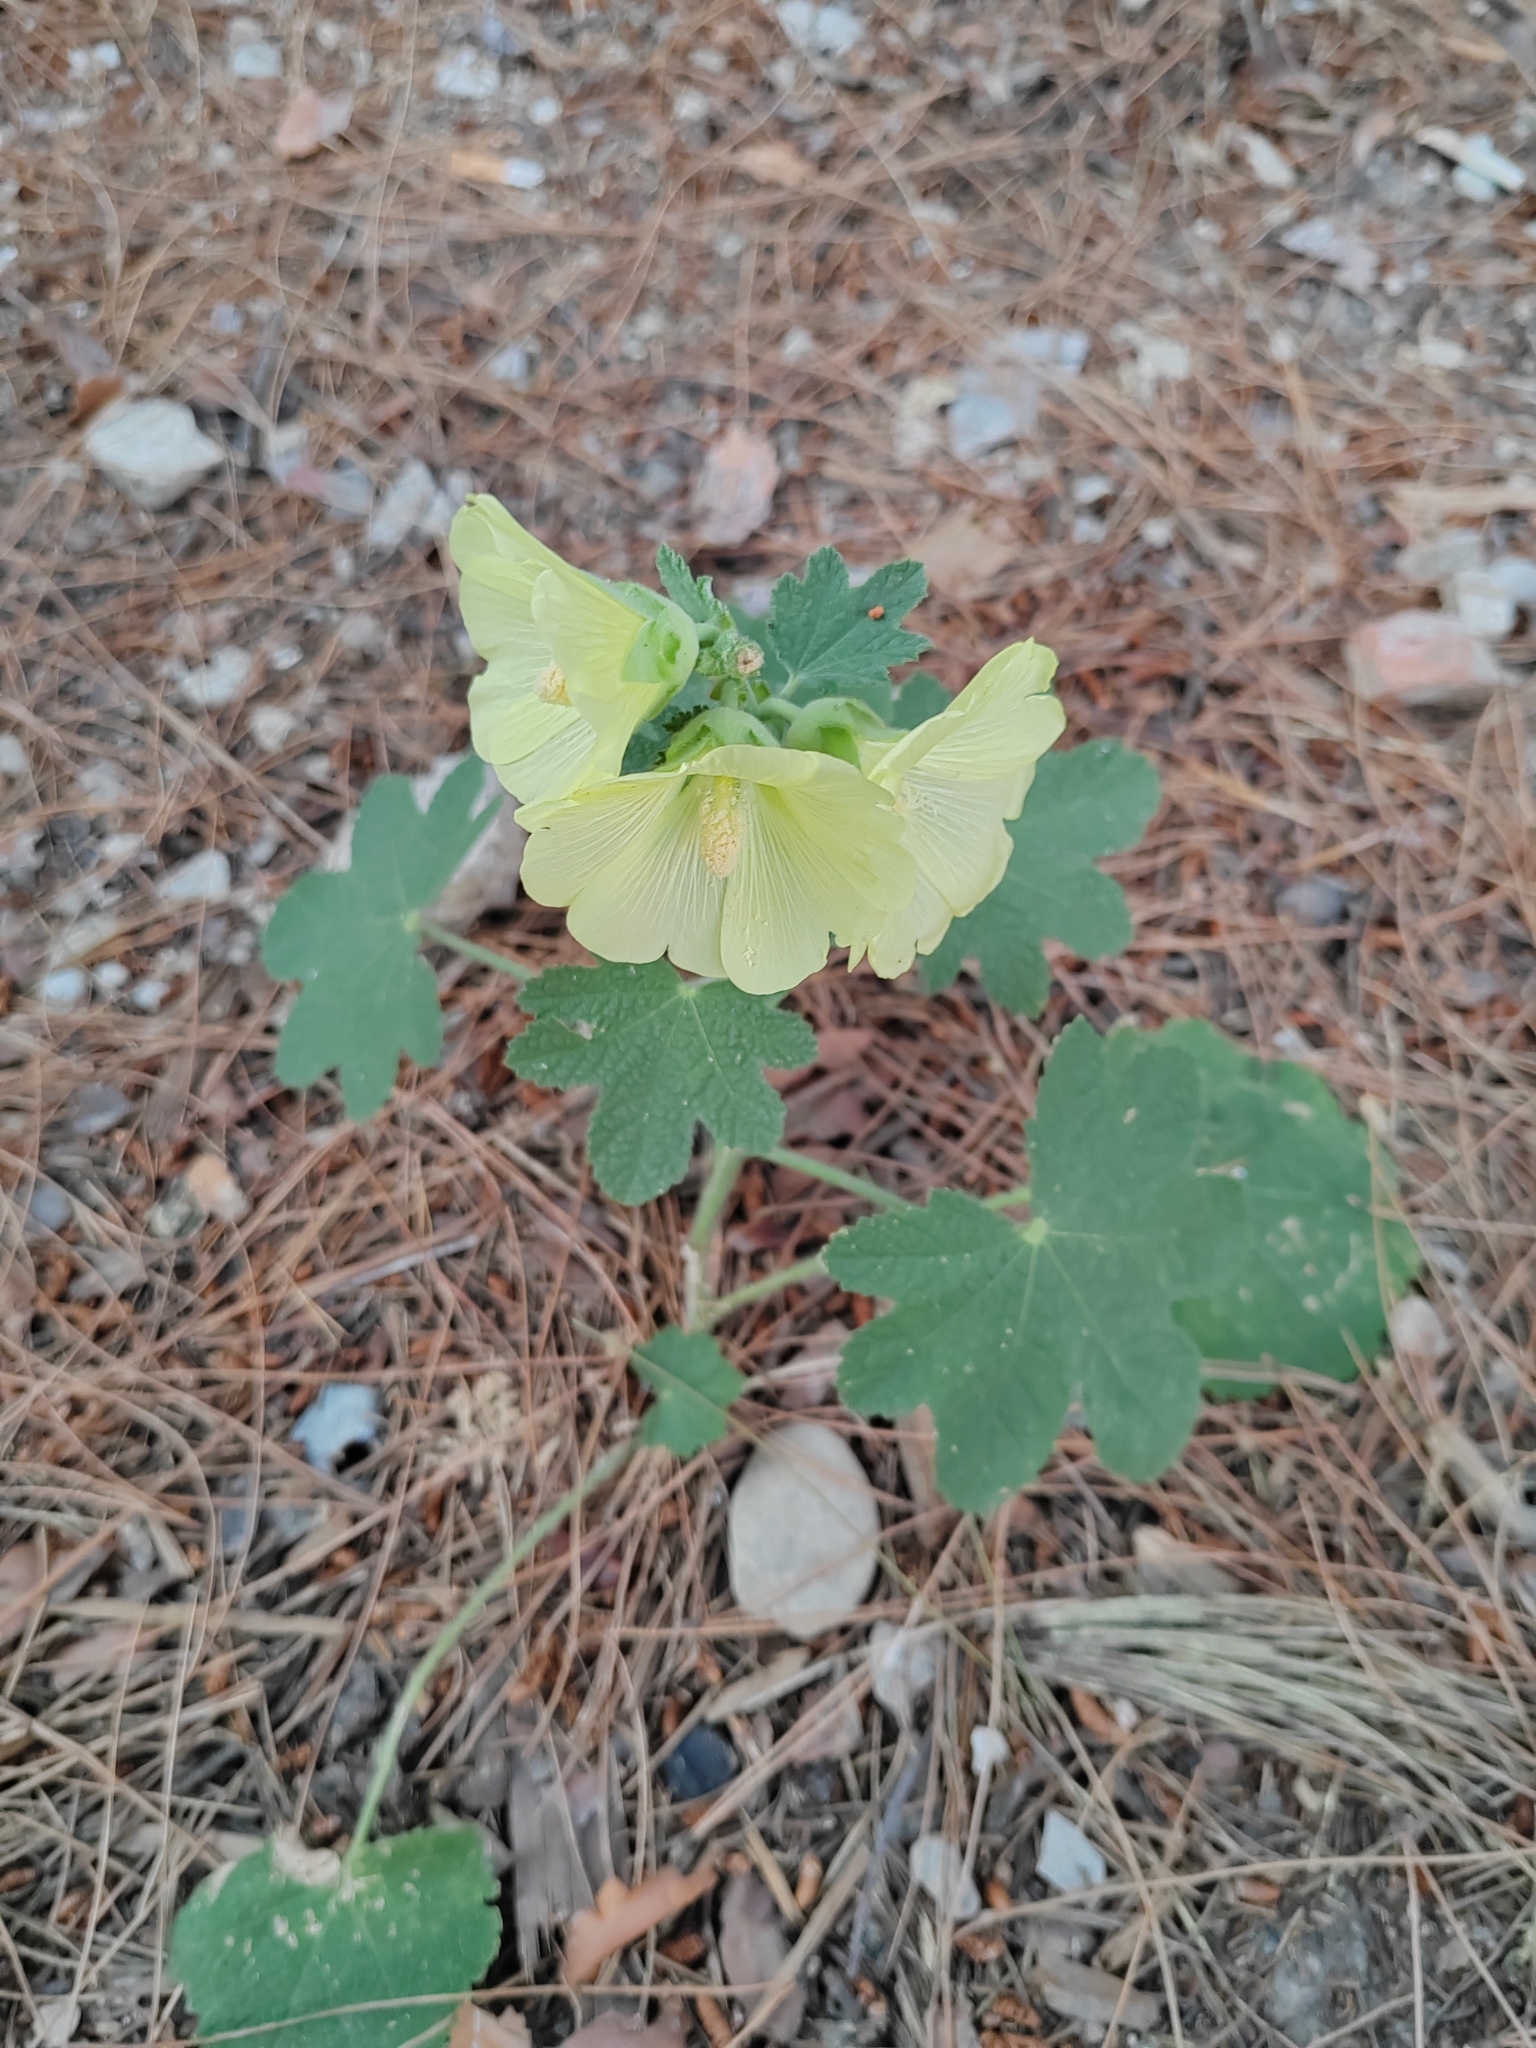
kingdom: Plantae
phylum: Tracheophyta
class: Magnoliopsida
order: Malvales
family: Malvaceae
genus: Alcea
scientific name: Alcea rugosa
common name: Russian hollyhock
